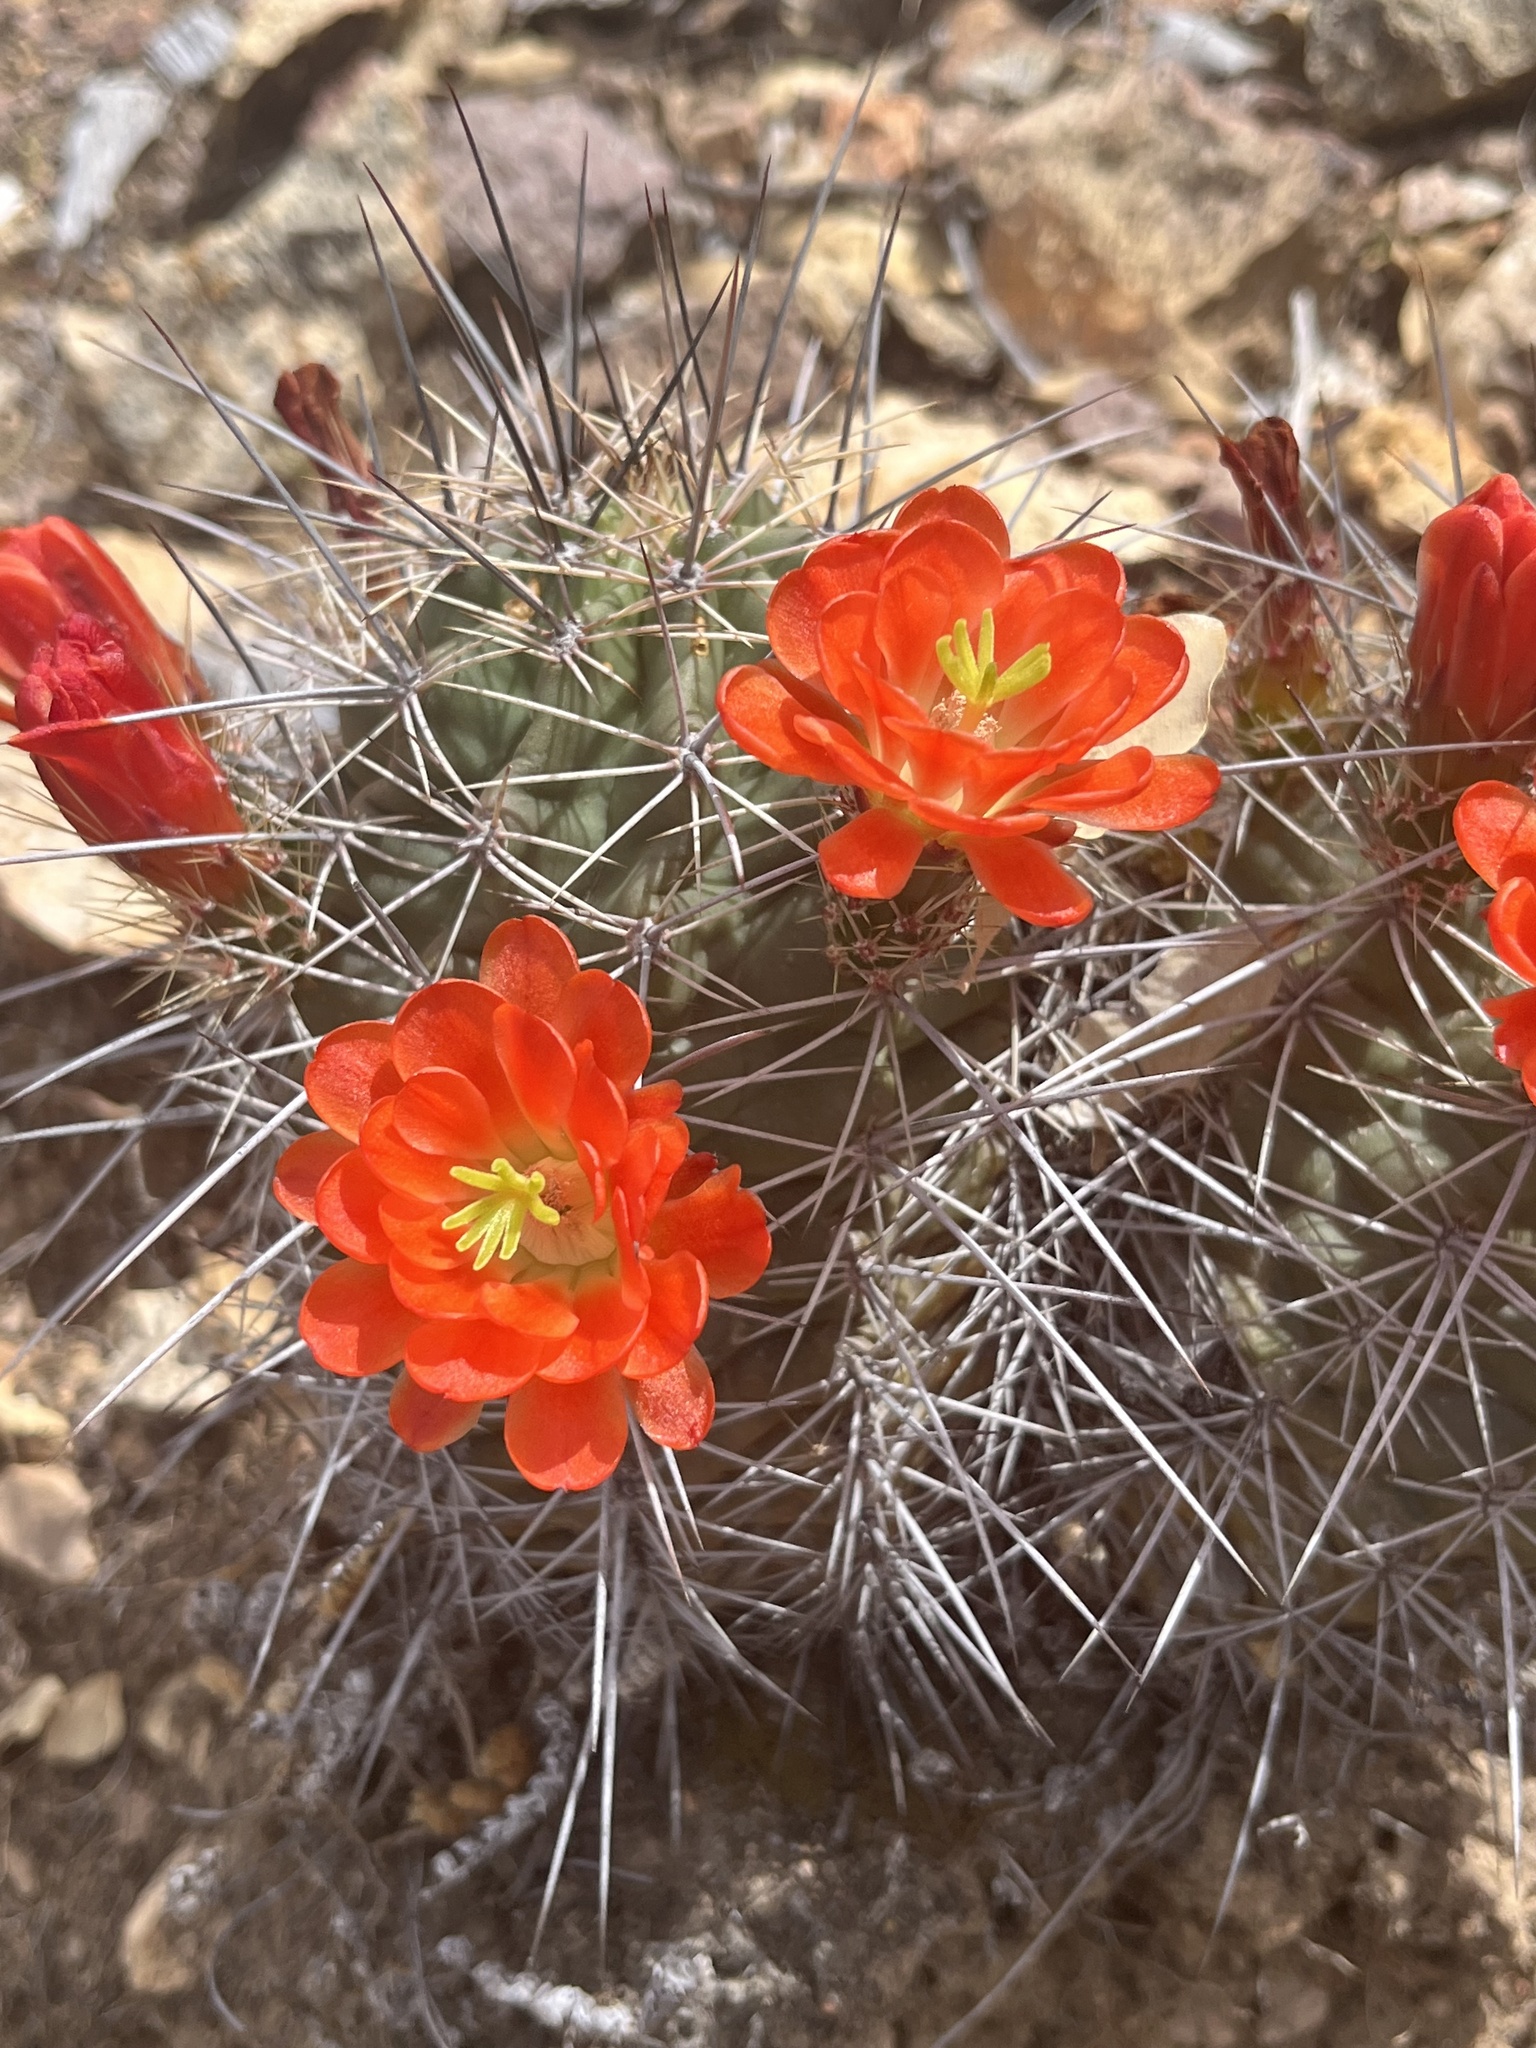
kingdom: Plantae
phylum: Tracheophyta
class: Magnoliopsida
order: Caryophyllales
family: Cactaceae
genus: Echinocereus
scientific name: Echinocereus coccineus
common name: Scarlet hedgehog cactus
